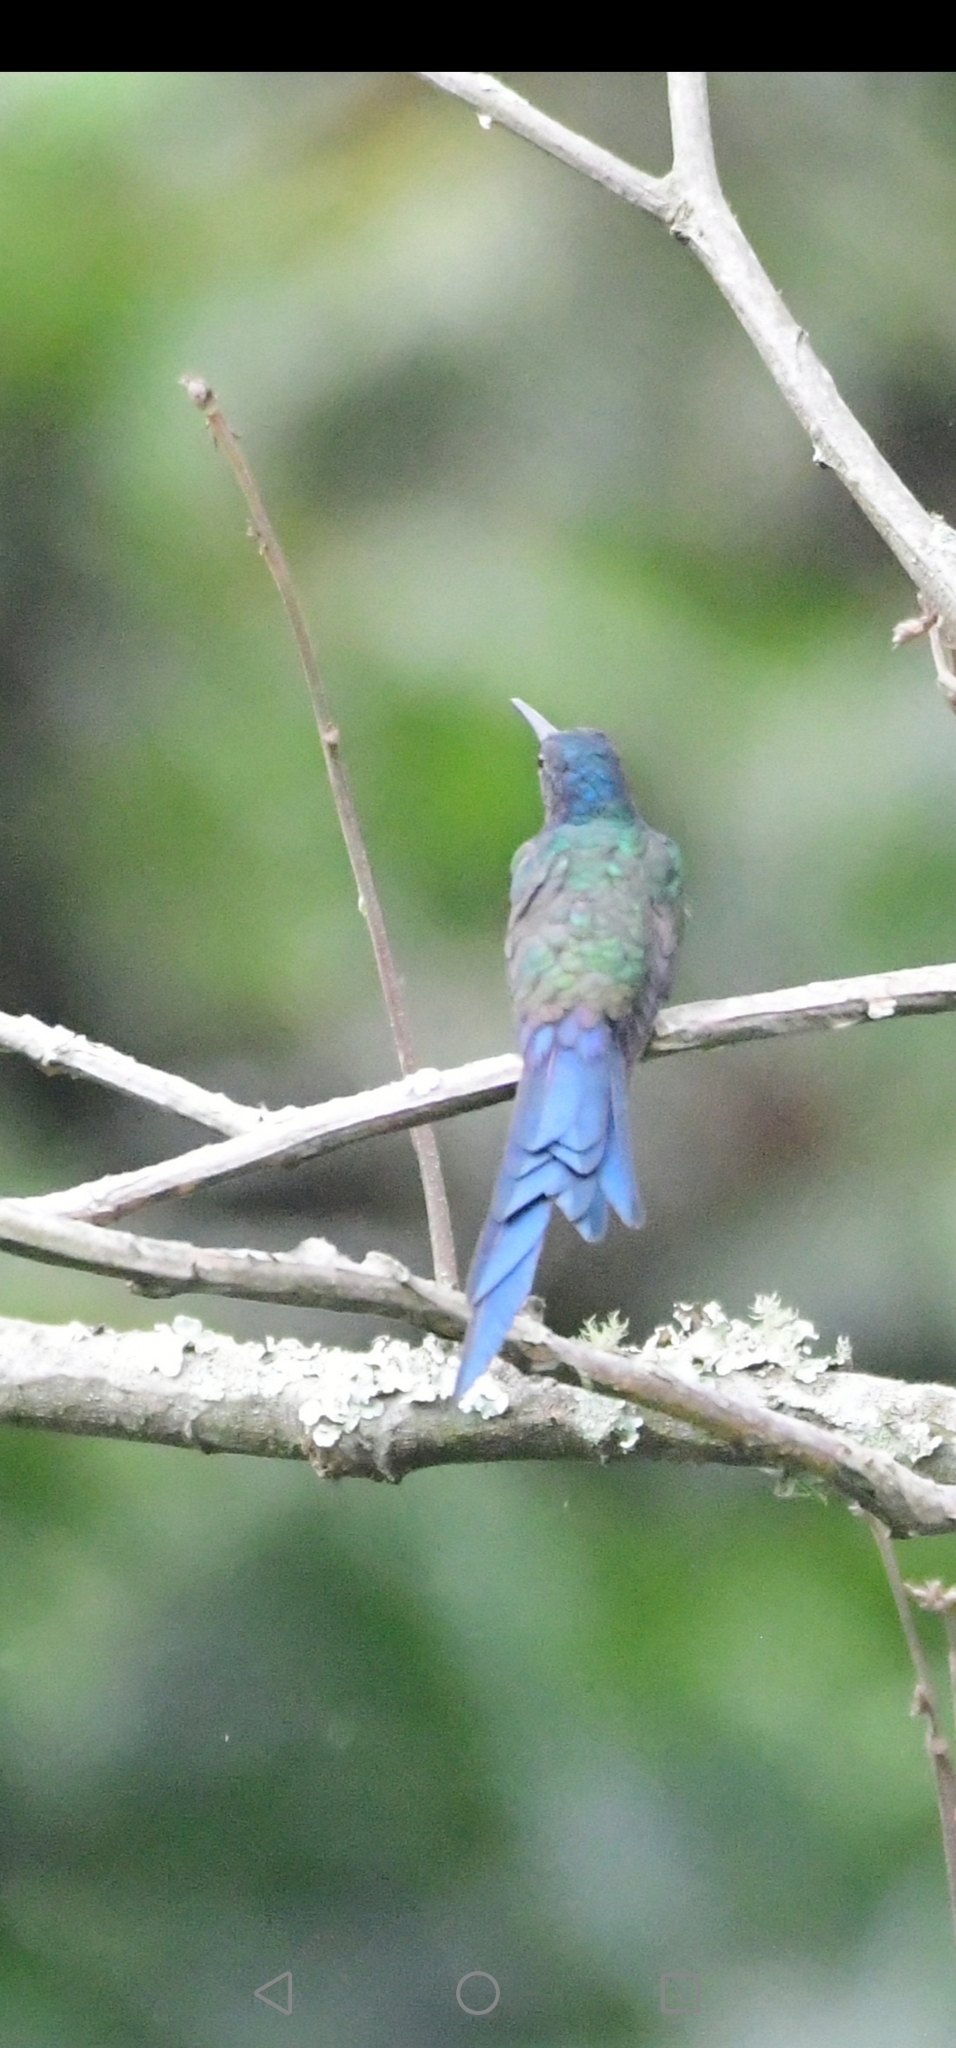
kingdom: Animalia
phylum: Chordata
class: Aves
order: Apodiformes
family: Trochilidae
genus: Colibri
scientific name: Colibri coruscans
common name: Sparkling violetear
